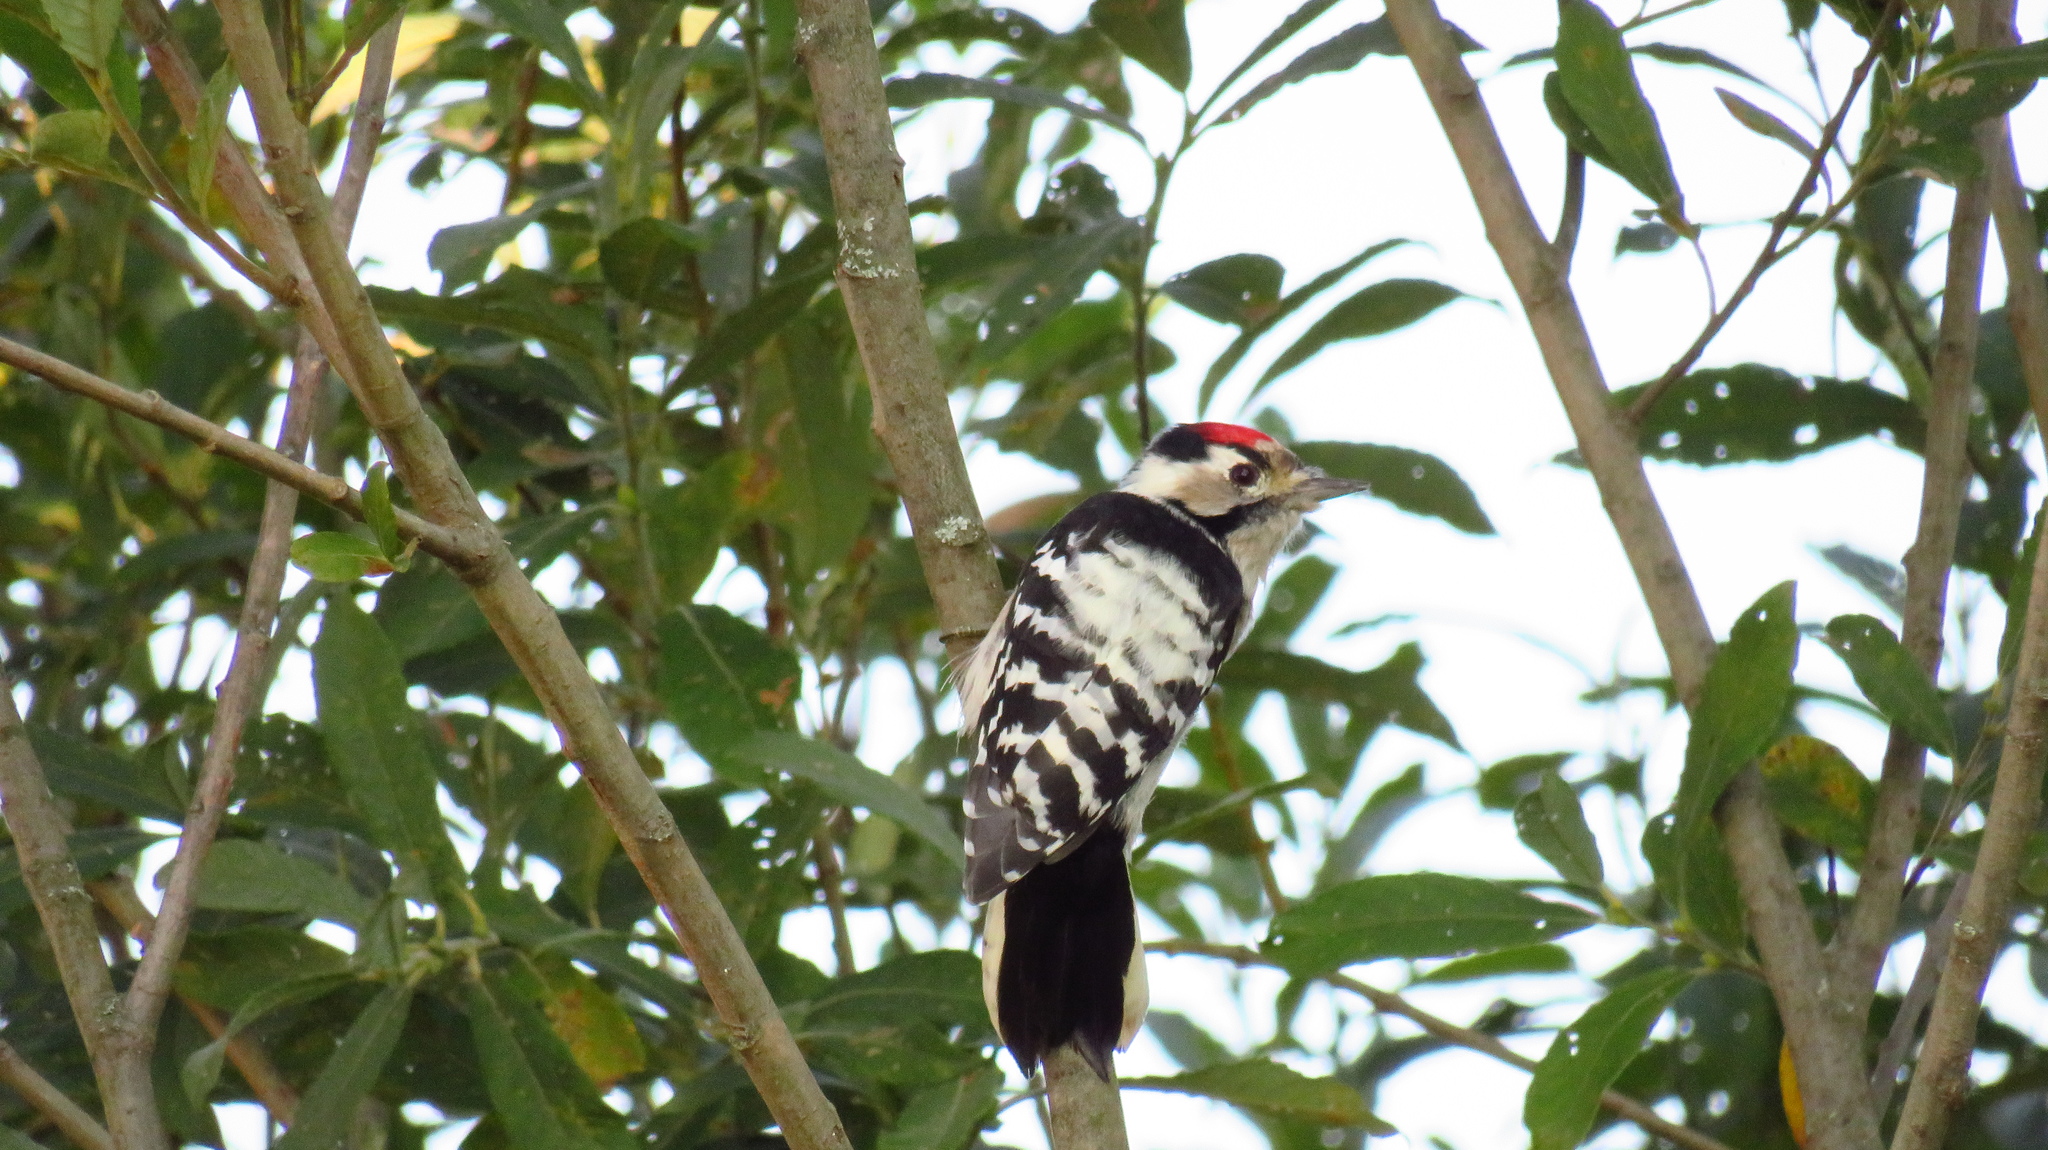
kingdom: Animalia
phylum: Chordata
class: Aves
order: Piciformes
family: Picidae
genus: Dryobates
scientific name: Dryobates minor
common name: Lesser spotted woodpecker
